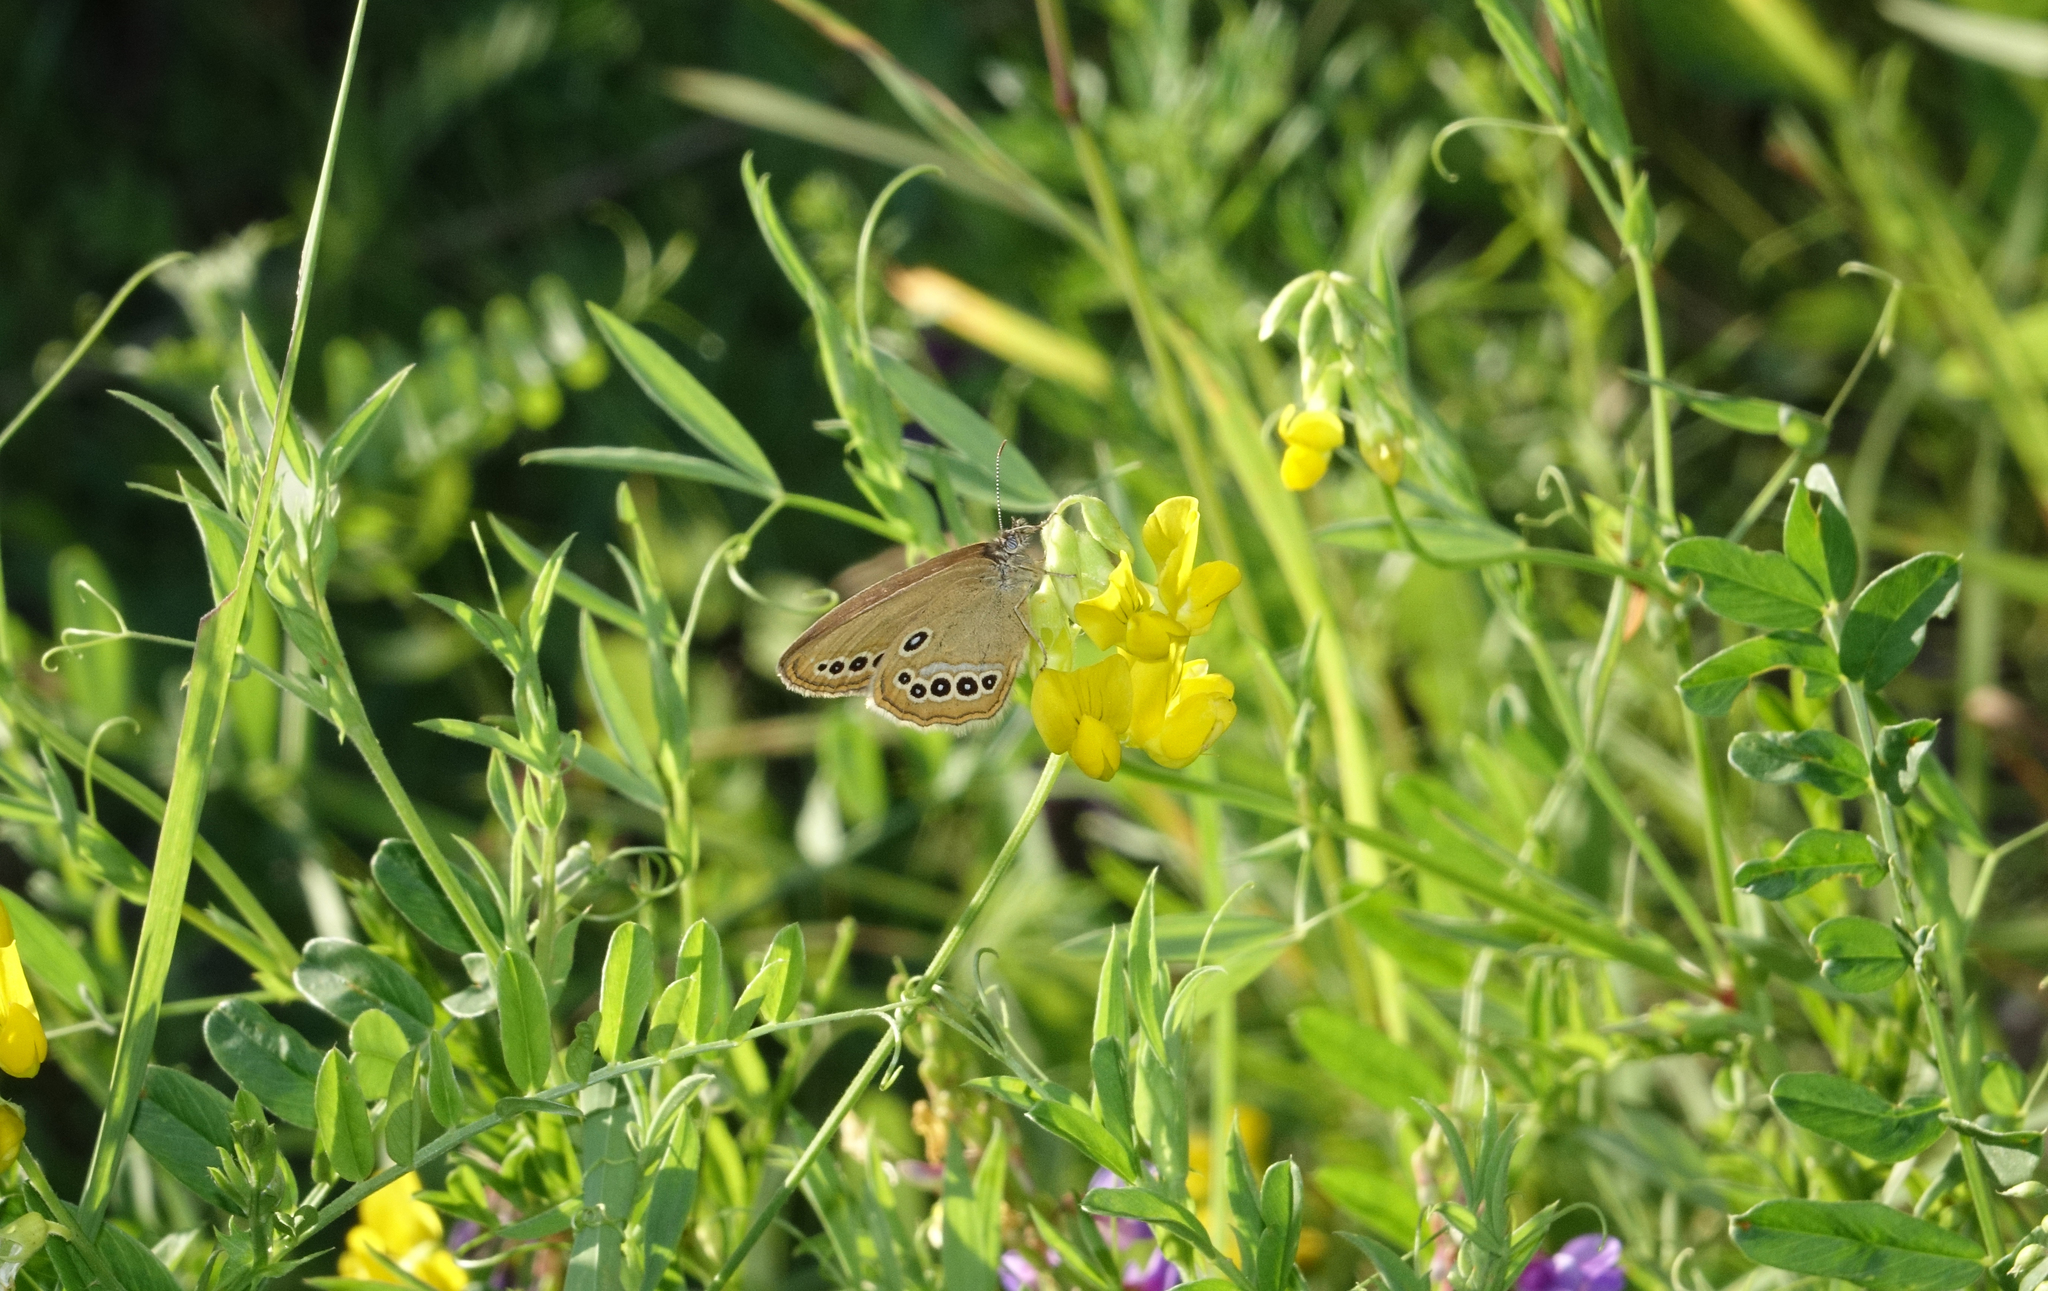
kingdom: Plantae
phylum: Tracheophyta
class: Magnoliopsida
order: Fabales
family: Fabaceae
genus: Lathyrus
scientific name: Lathyrus pratensis
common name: Meadow vetchling
